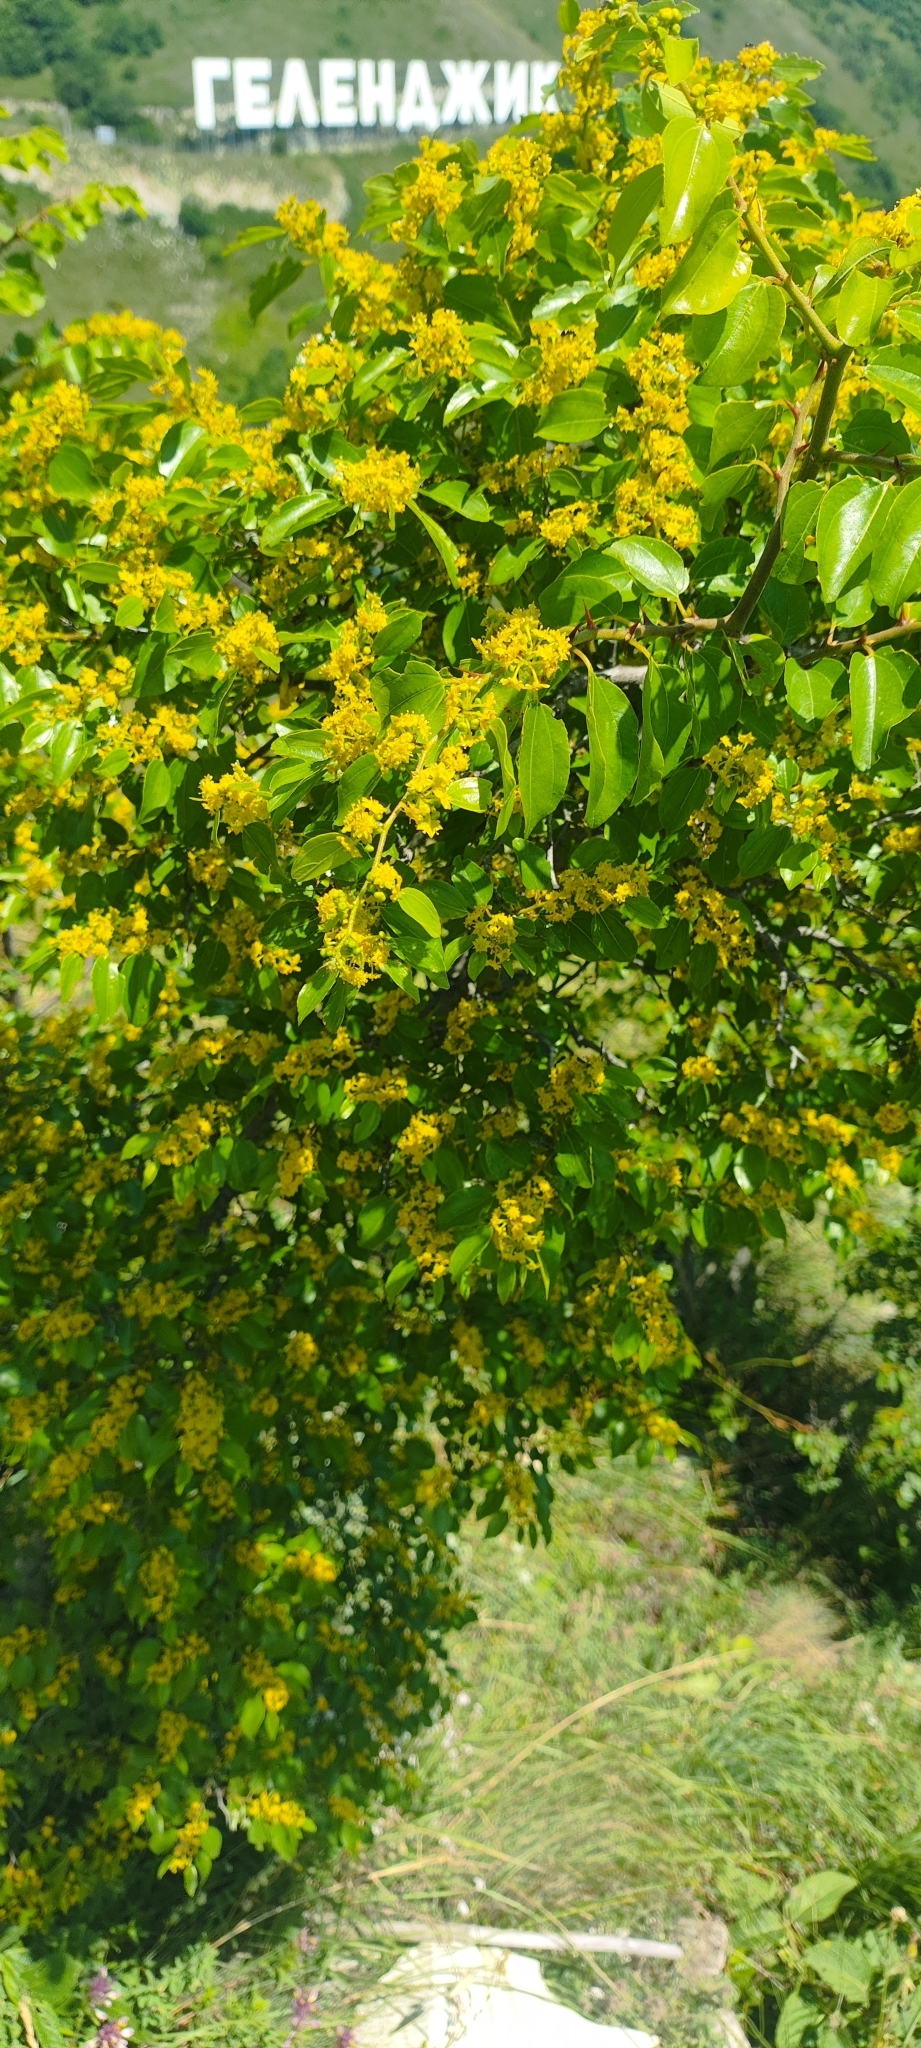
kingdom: Plantae
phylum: Tracheophyta
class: Magnoliopsida
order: Rosales
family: Rhamnaceae
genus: Paliurus
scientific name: Paliurus spina-christi
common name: Jeruselem thorn
